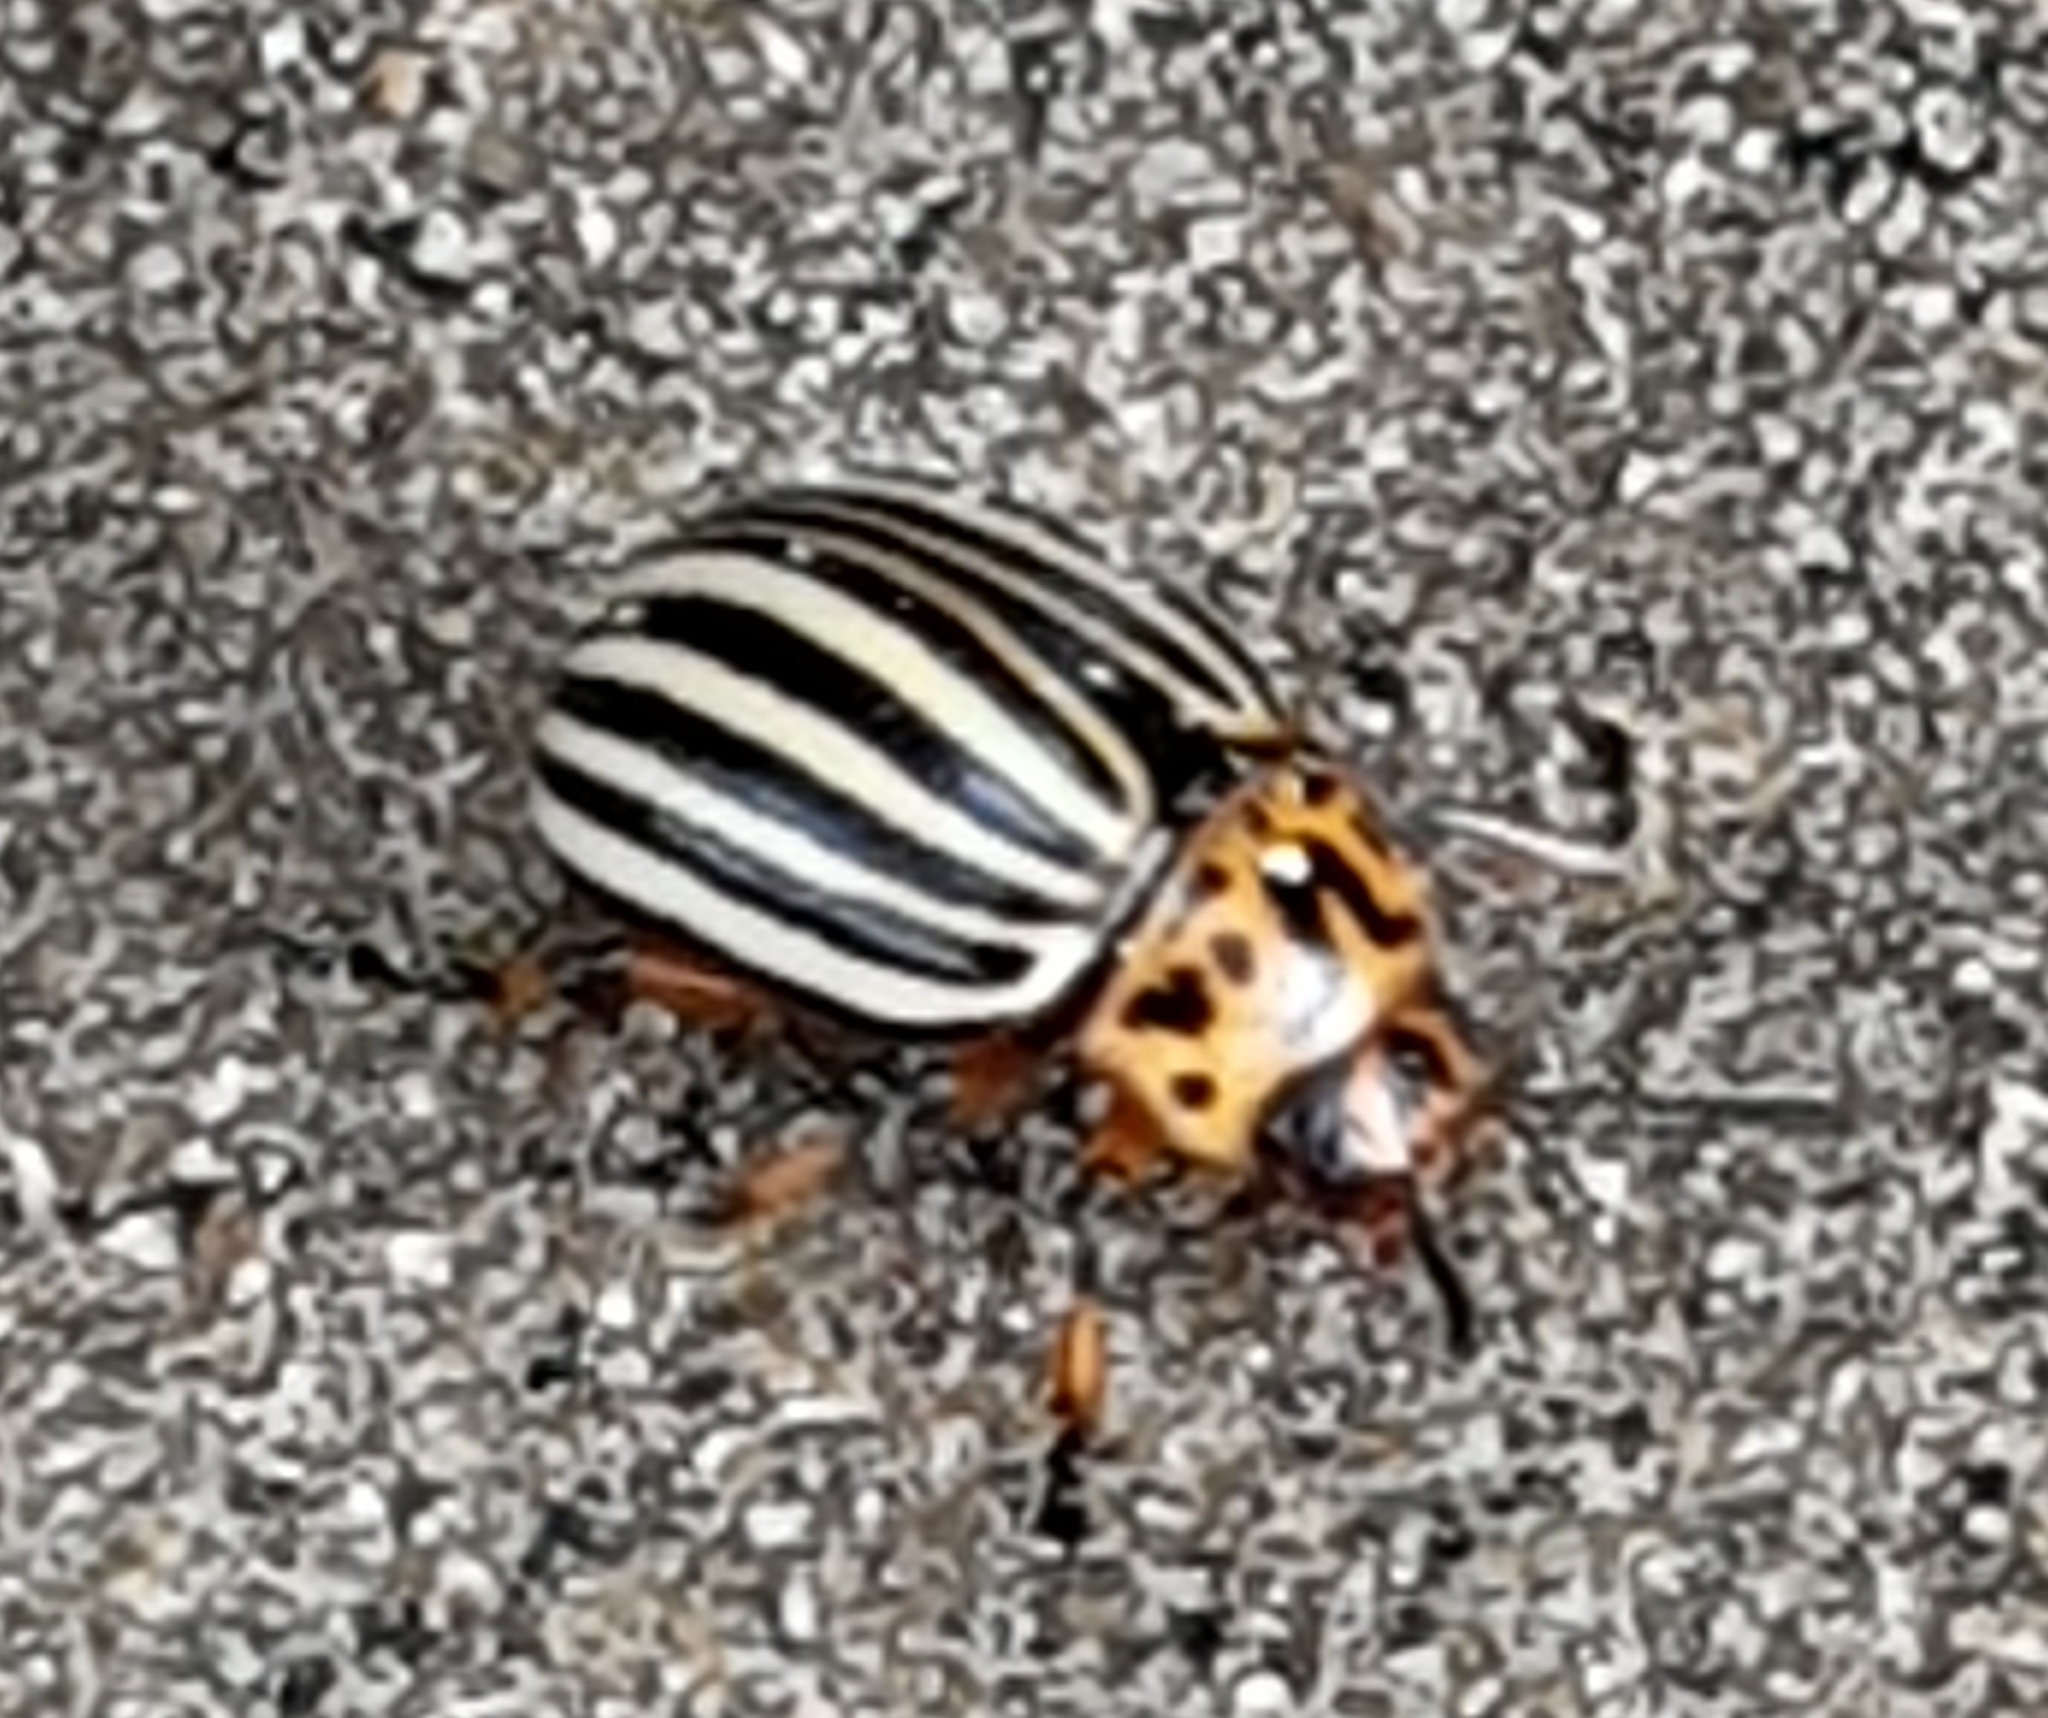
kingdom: Animalia
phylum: Arthropoda
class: Insecta
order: Coleoptera
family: Chrysomelidae
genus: Leptinotarsa
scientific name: Leptinotarsa decemlineata
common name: Colorado potato beetle
